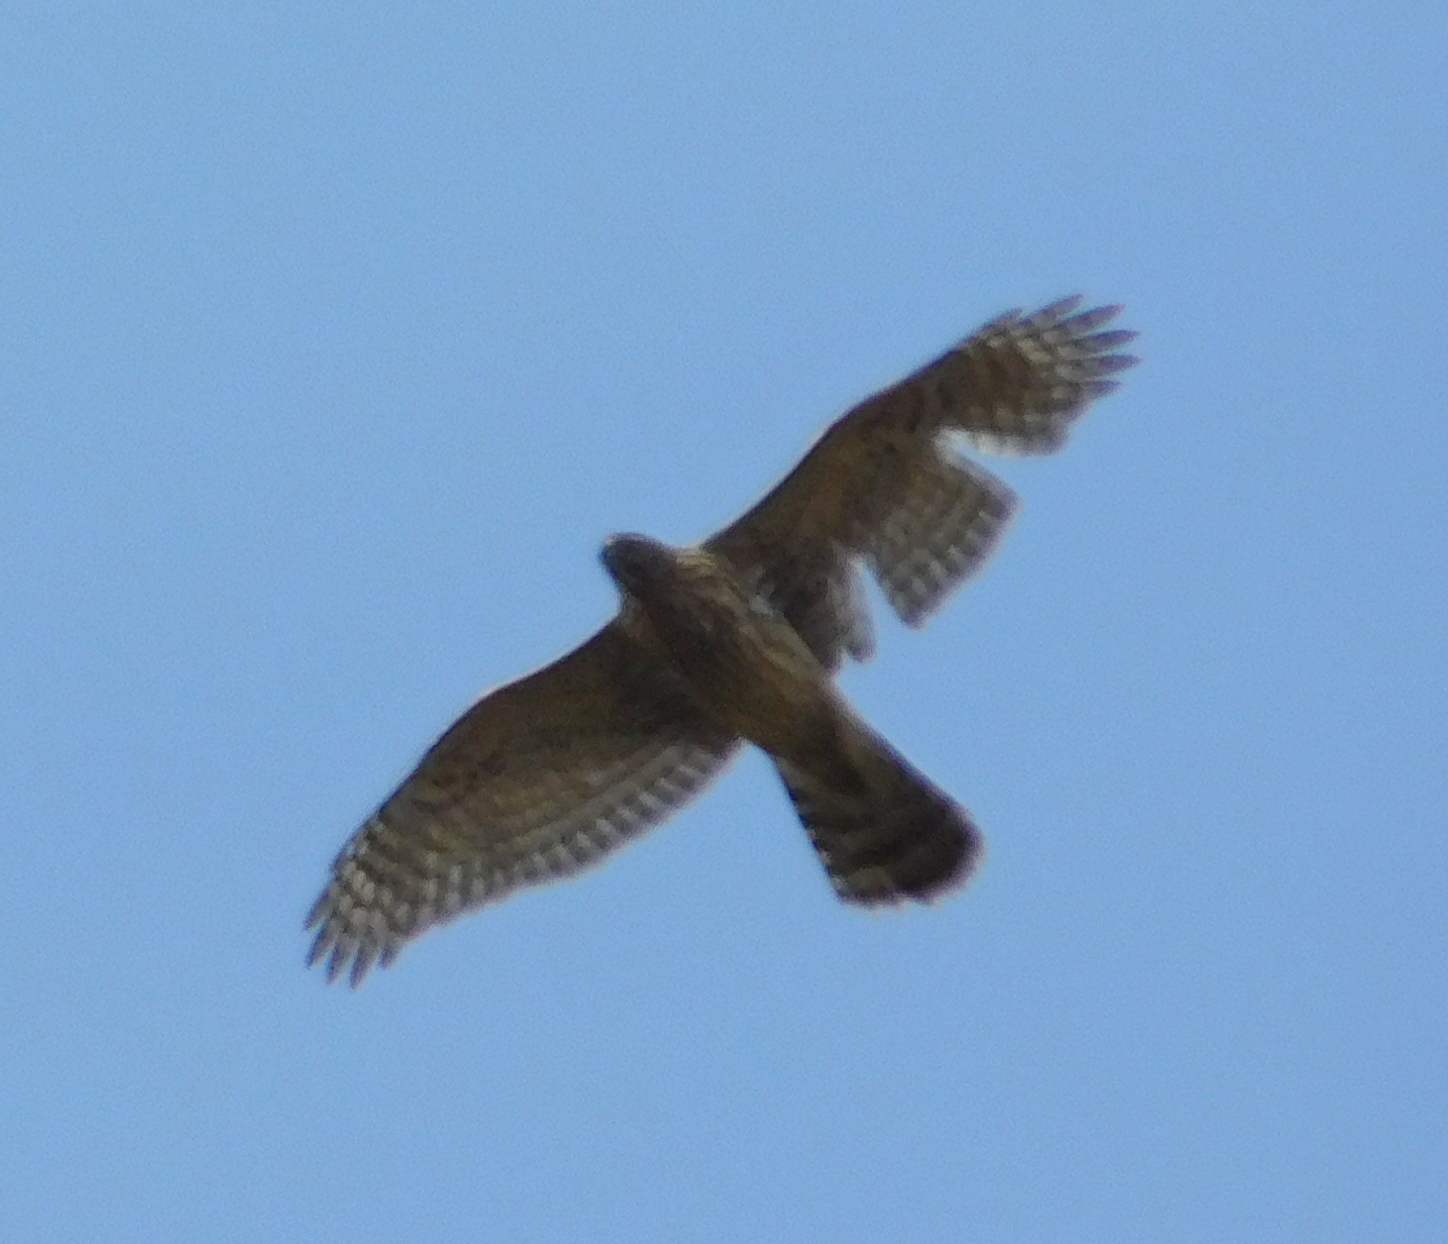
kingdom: Animalia
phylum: Chordata
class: Aves
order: Accipitriformes
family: Accipitridae
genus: Accipiter
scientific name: Accipiter gentilis
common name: Northern goshawk
